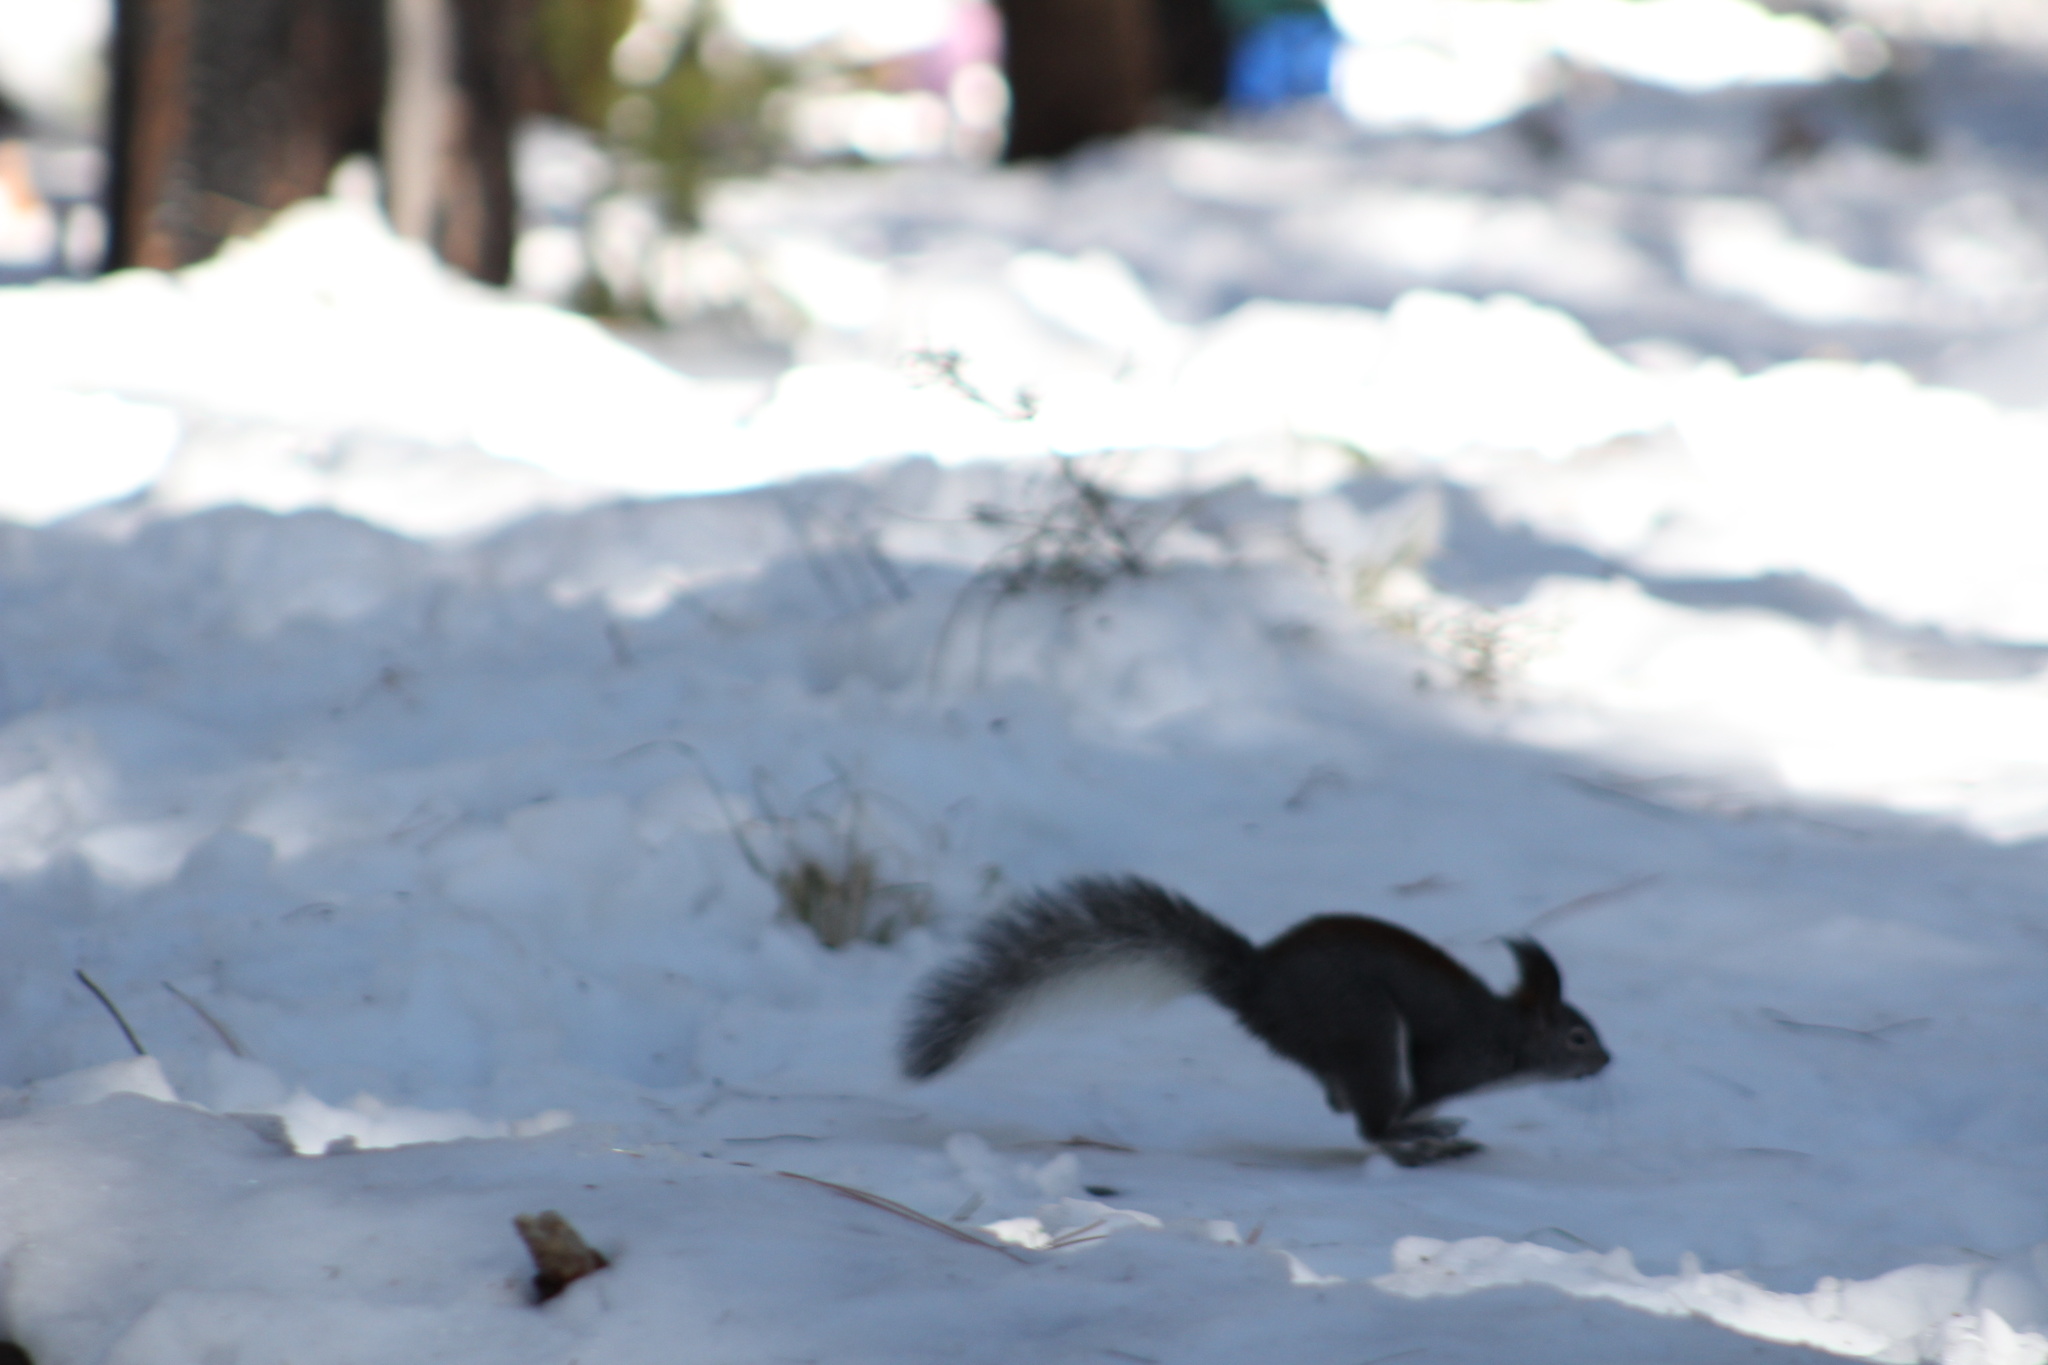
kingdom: Animalia
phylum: Chordata
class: Mammalia
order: Rodentia
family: Sciuridae
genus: Sciurus
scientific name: Sciurus aberti
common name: Abert's squirrel
